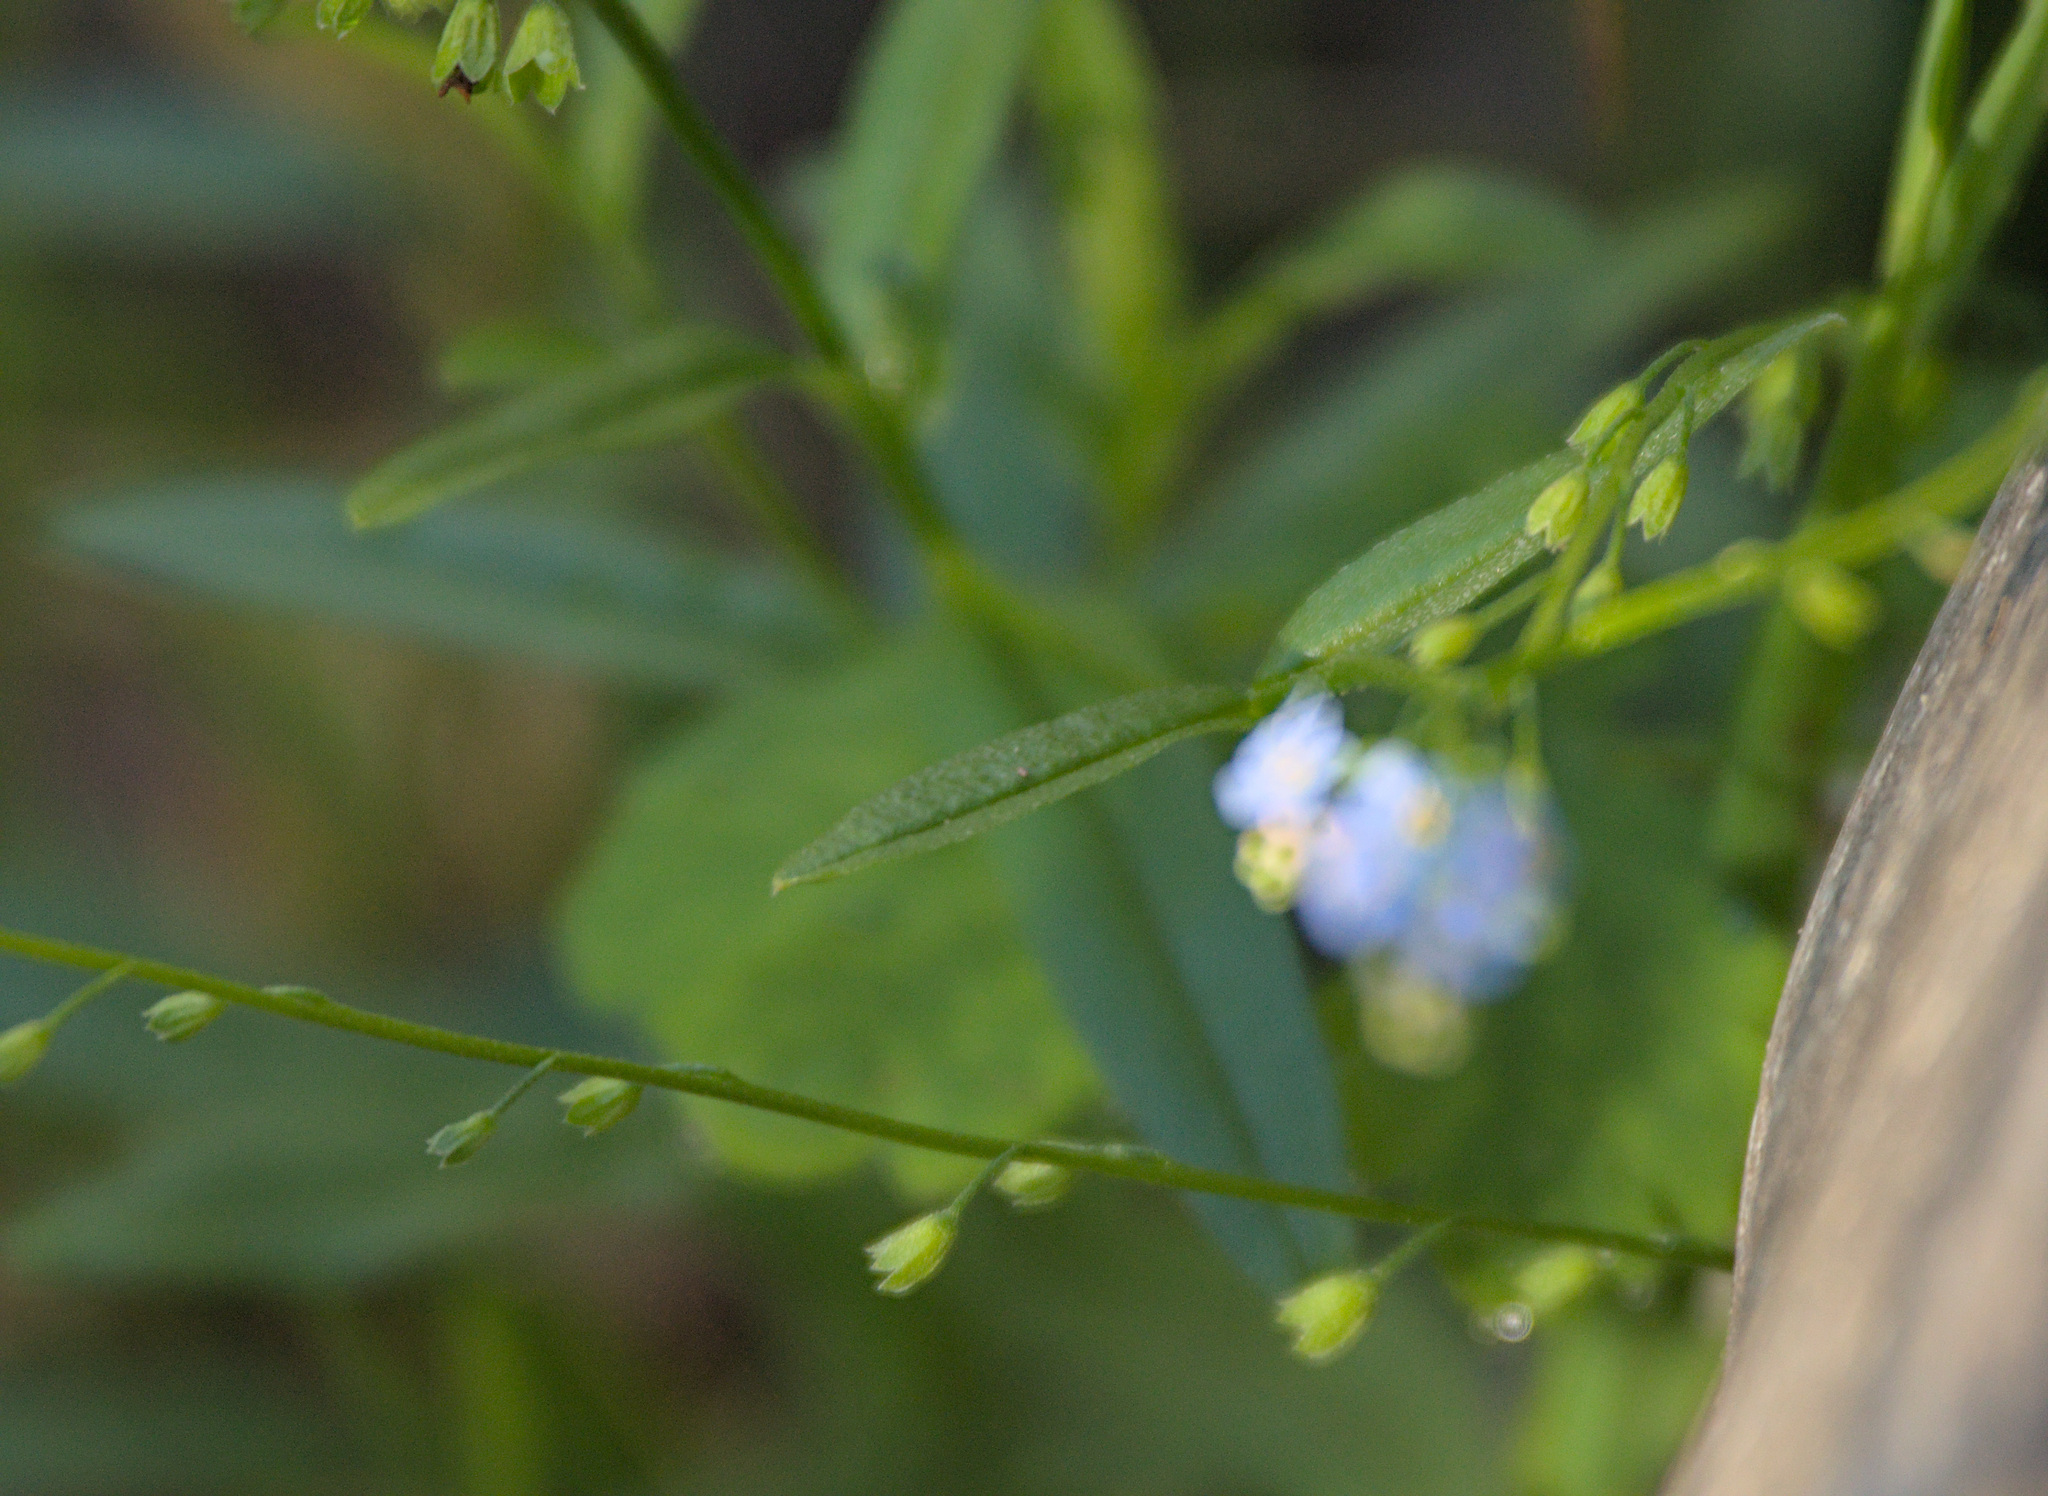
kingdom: Plantae
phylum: Tracheophyta
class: Magnoliopsida
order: Boraginales
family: Boraginaceae
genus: Myosotis
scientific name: Myosotis scorpioides
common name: Water forget-me-not
